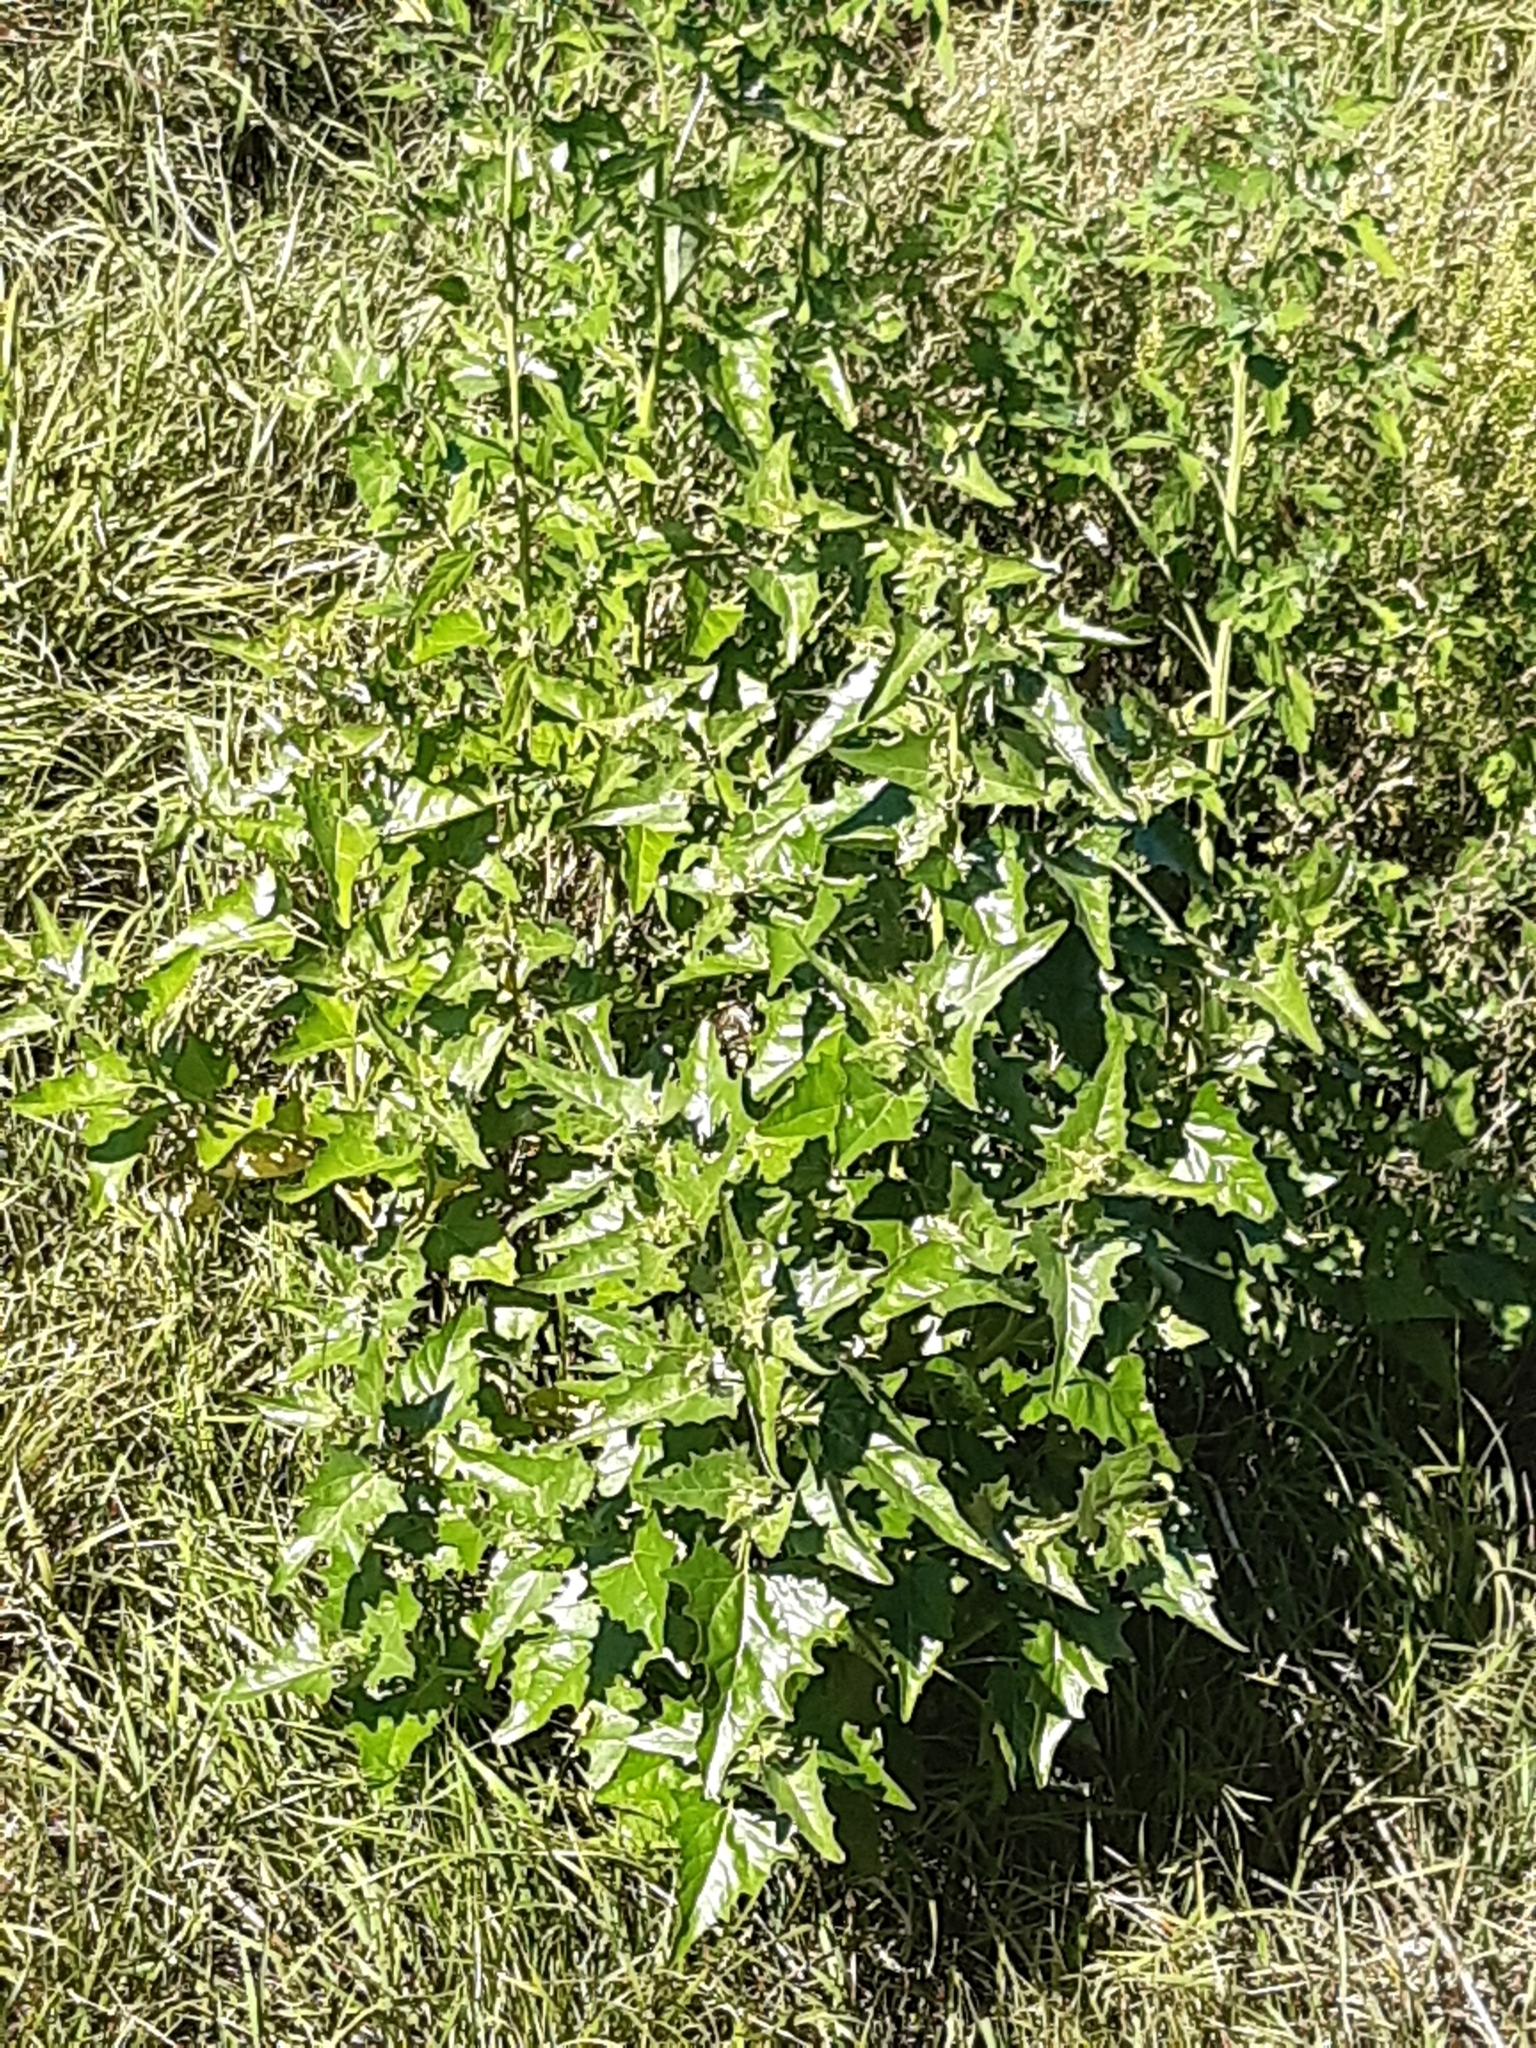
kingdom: Plantae
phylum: Tracheophyta
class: Magnoliopsida
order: Caryophyllales
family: Amaranthaceae
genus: Atriplex
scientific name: Atriplex sagittata
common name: Purple orache
